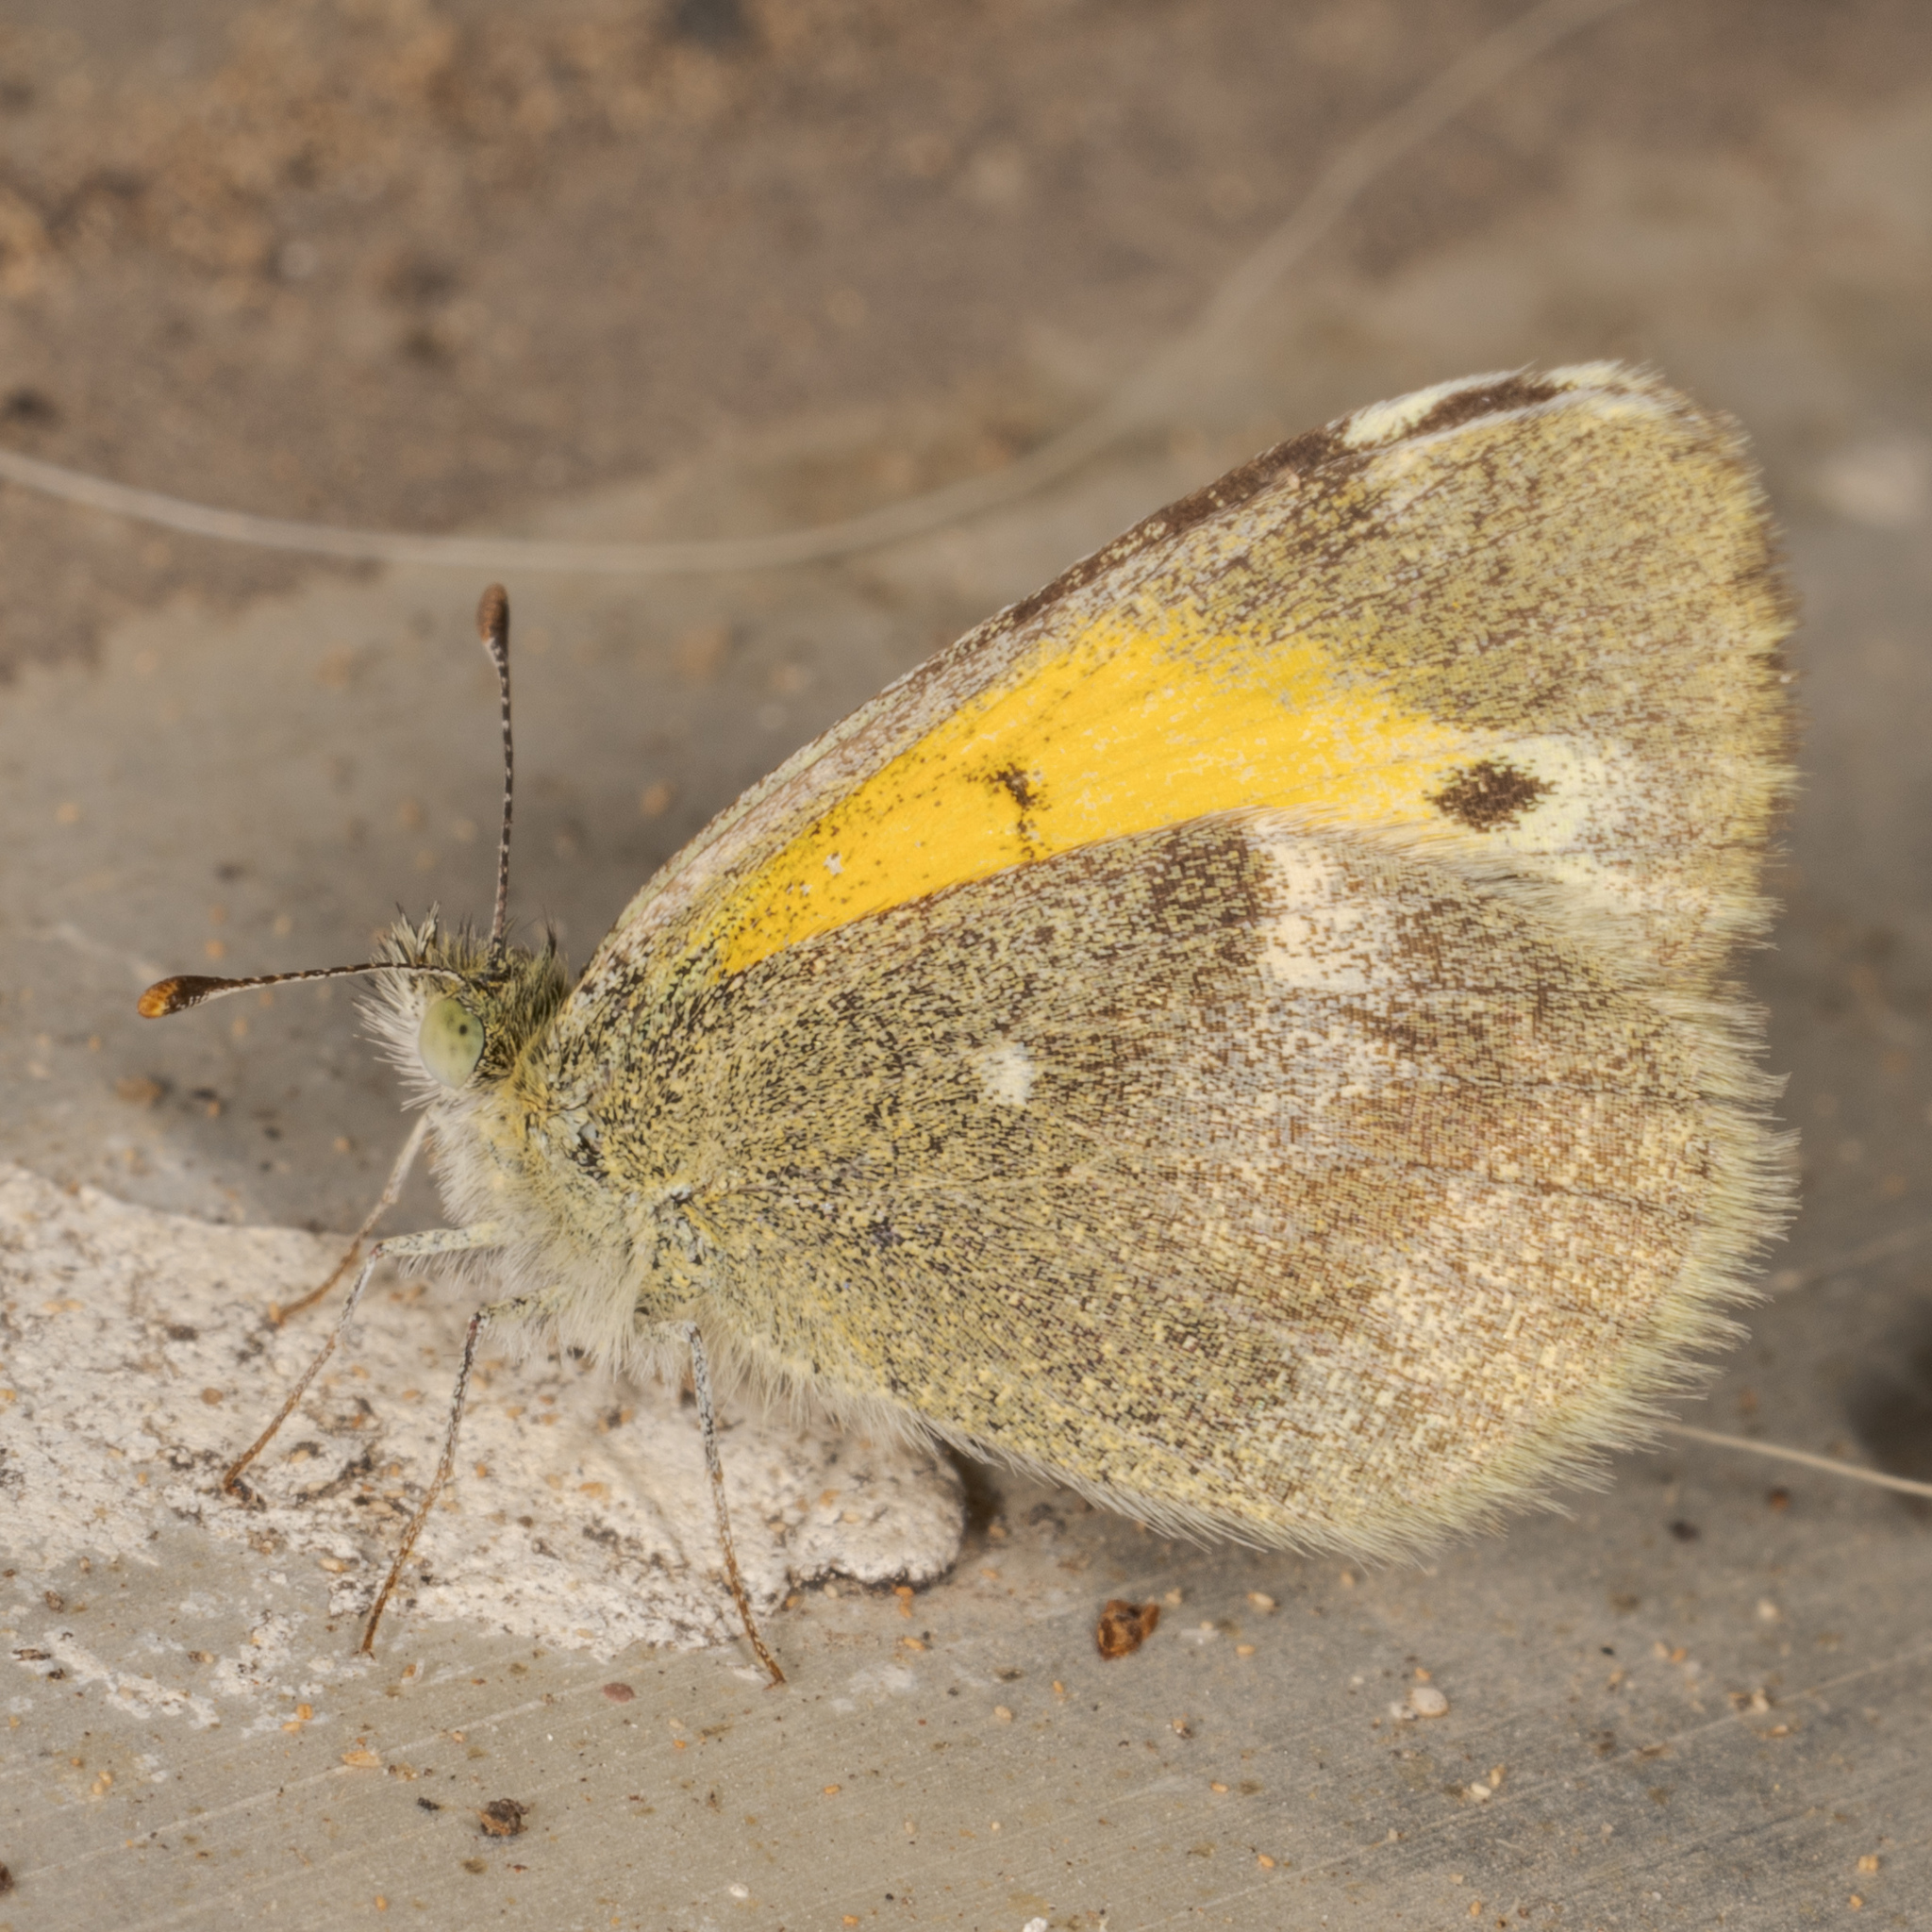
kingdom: Animalia
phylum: Arthropoda
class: Insecta
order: Lepidoptera
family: Pieridae
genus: Nathalis
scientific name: Nathalis iole
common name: Dainty sulphur
